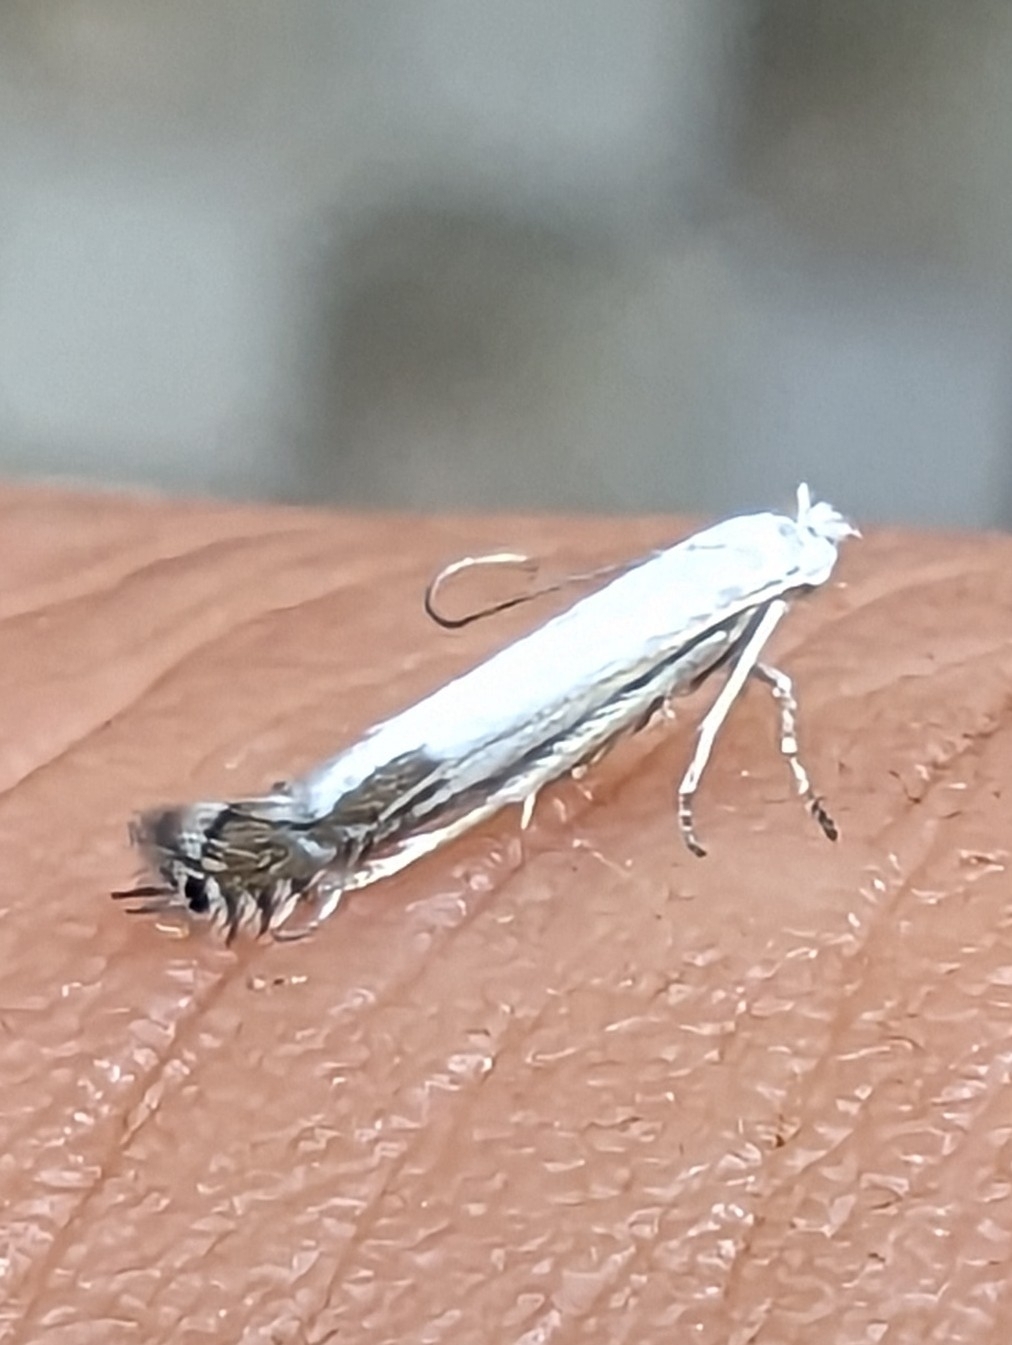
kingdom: Animalia
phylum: Arthropoda
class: Insecta
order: Lepidoptera
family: Lyonetiidae
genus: Lyonetia
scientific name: Lyonetia clerkella
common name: Apple leaf miner
